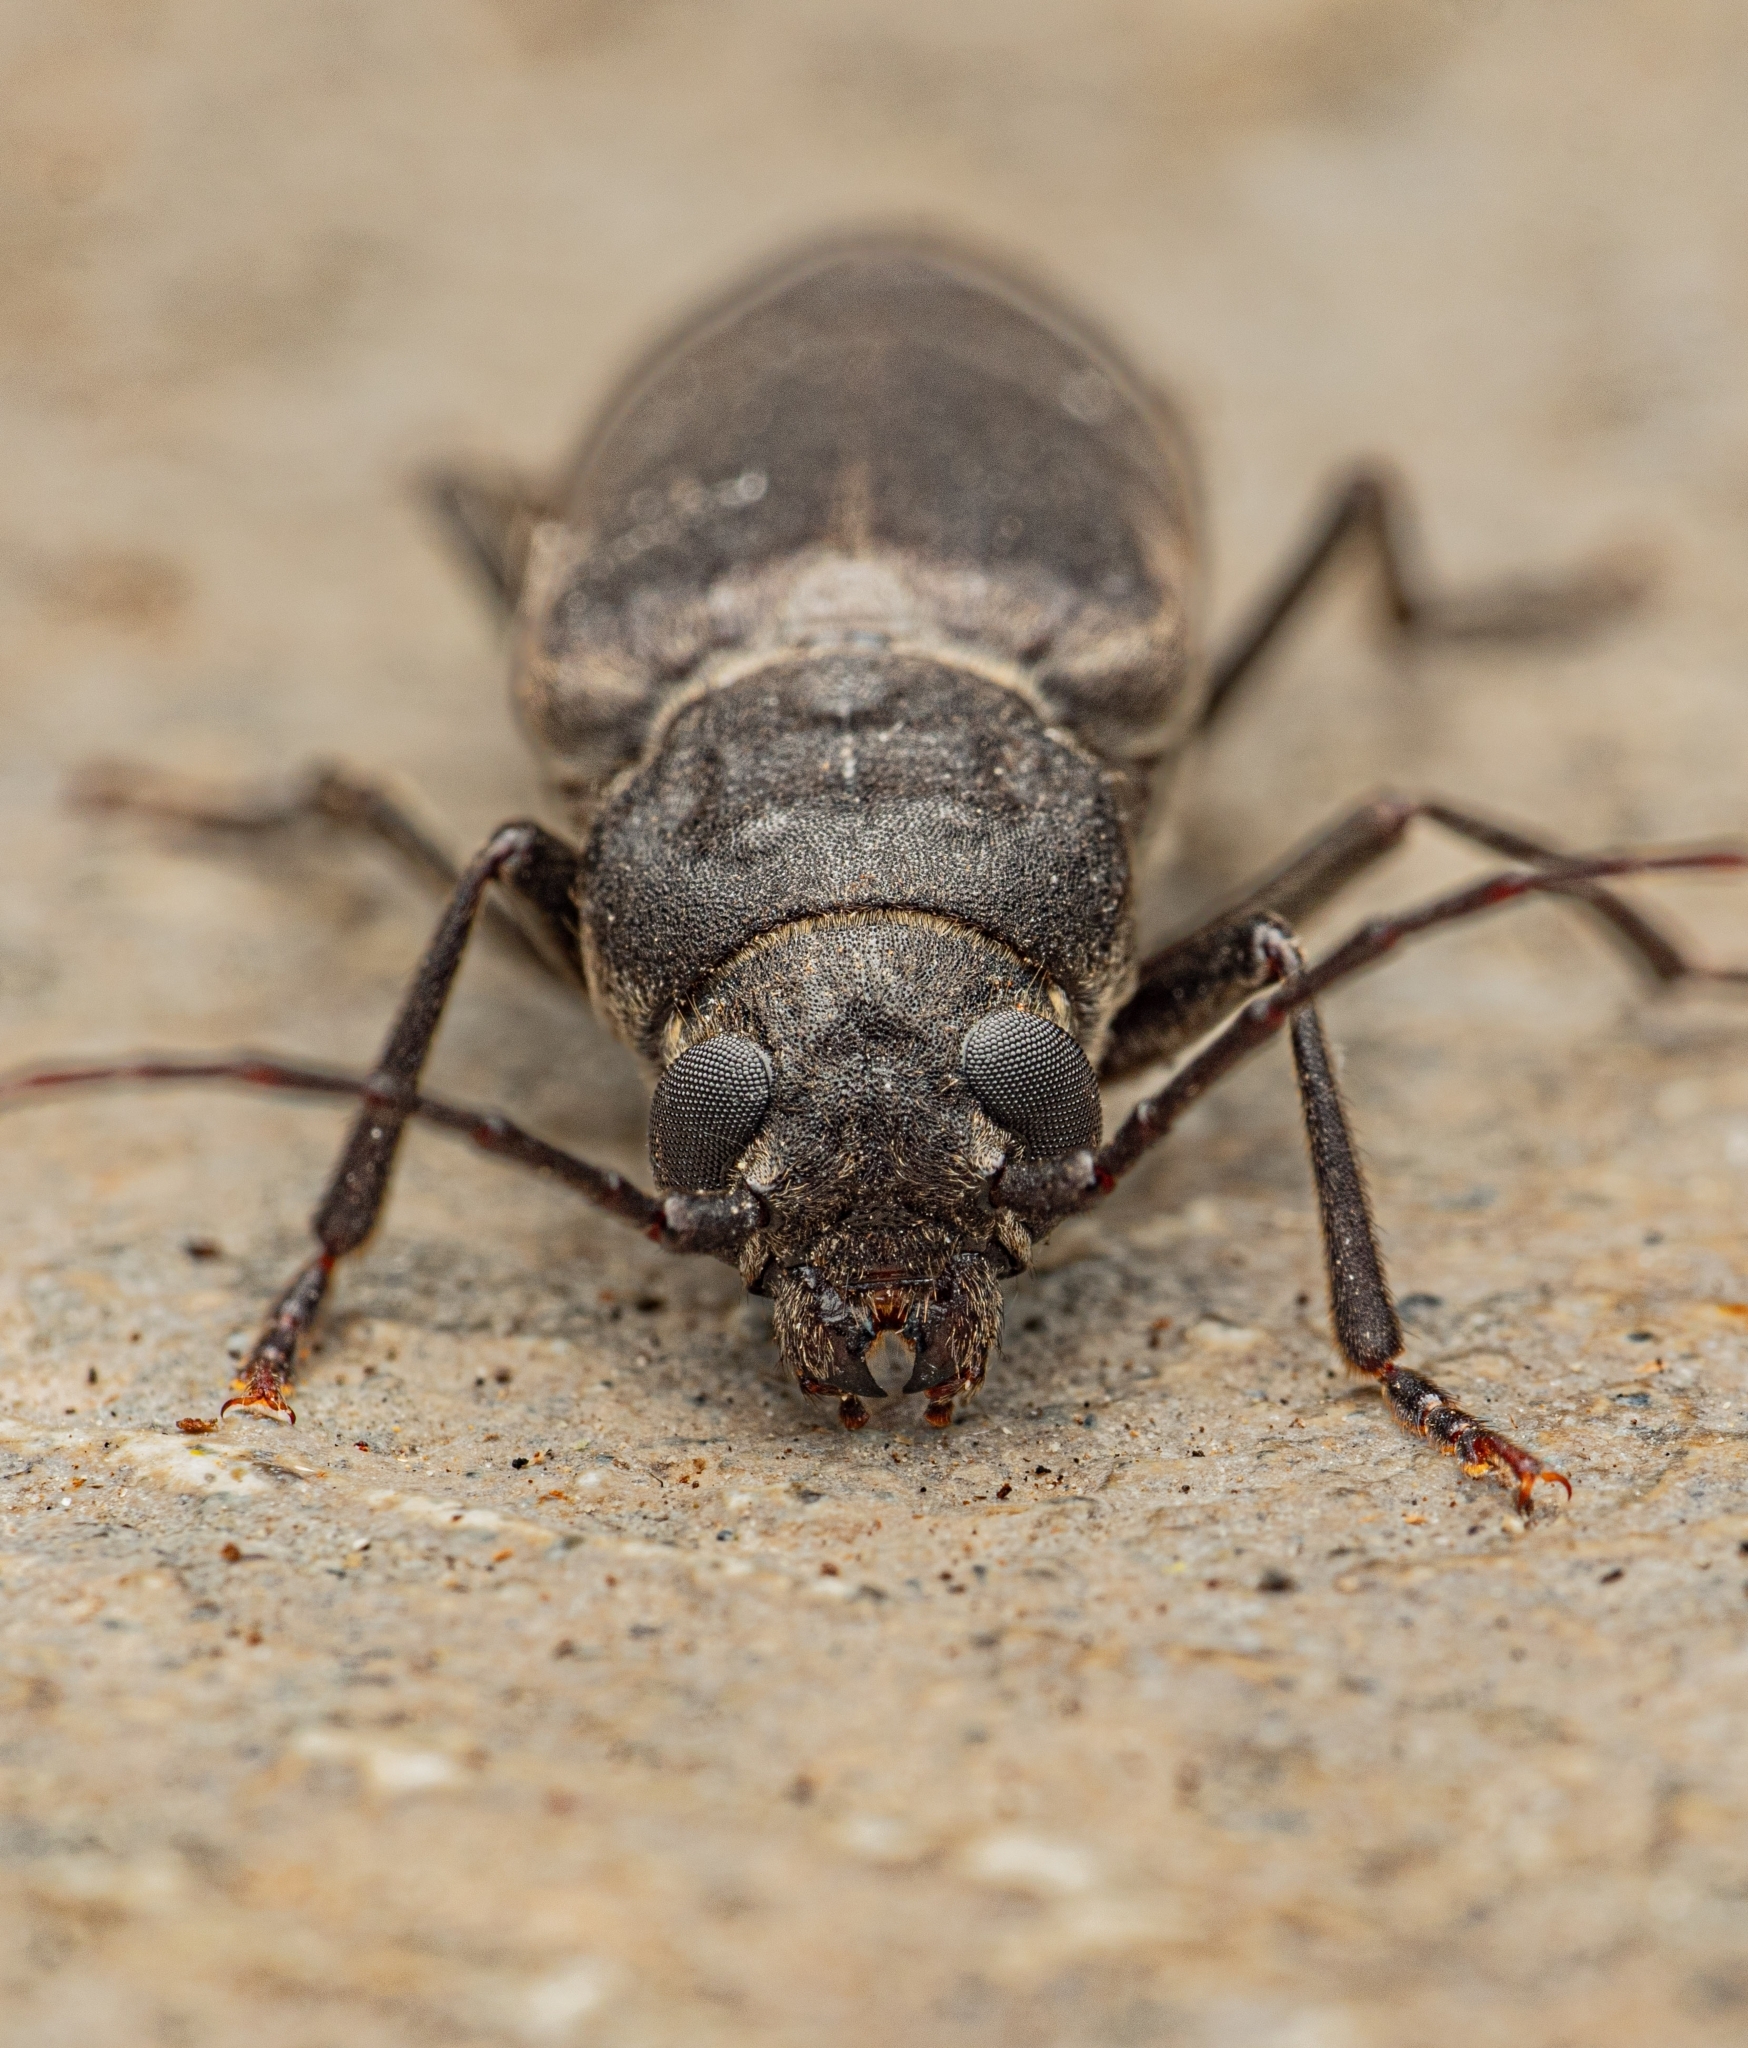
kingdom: Animalia
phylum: Arthropoda
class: Insecta
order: Coleoptera
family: Cerambycidae
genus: Arhopalus
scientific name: Arhopalus ferus
